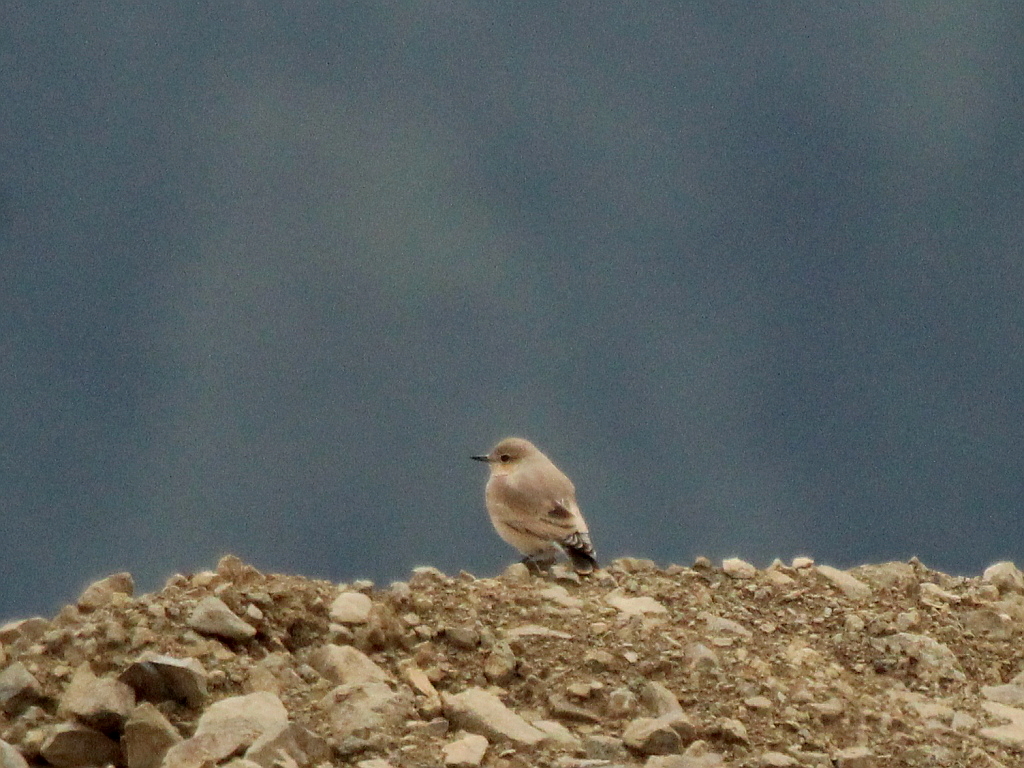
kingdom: Animalia
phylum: Chordata
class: Aves
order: Passeriformes
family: Muscicapidae
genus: Oenanthe
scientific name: Oenanthe oenanthe
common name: Northern wheatear
